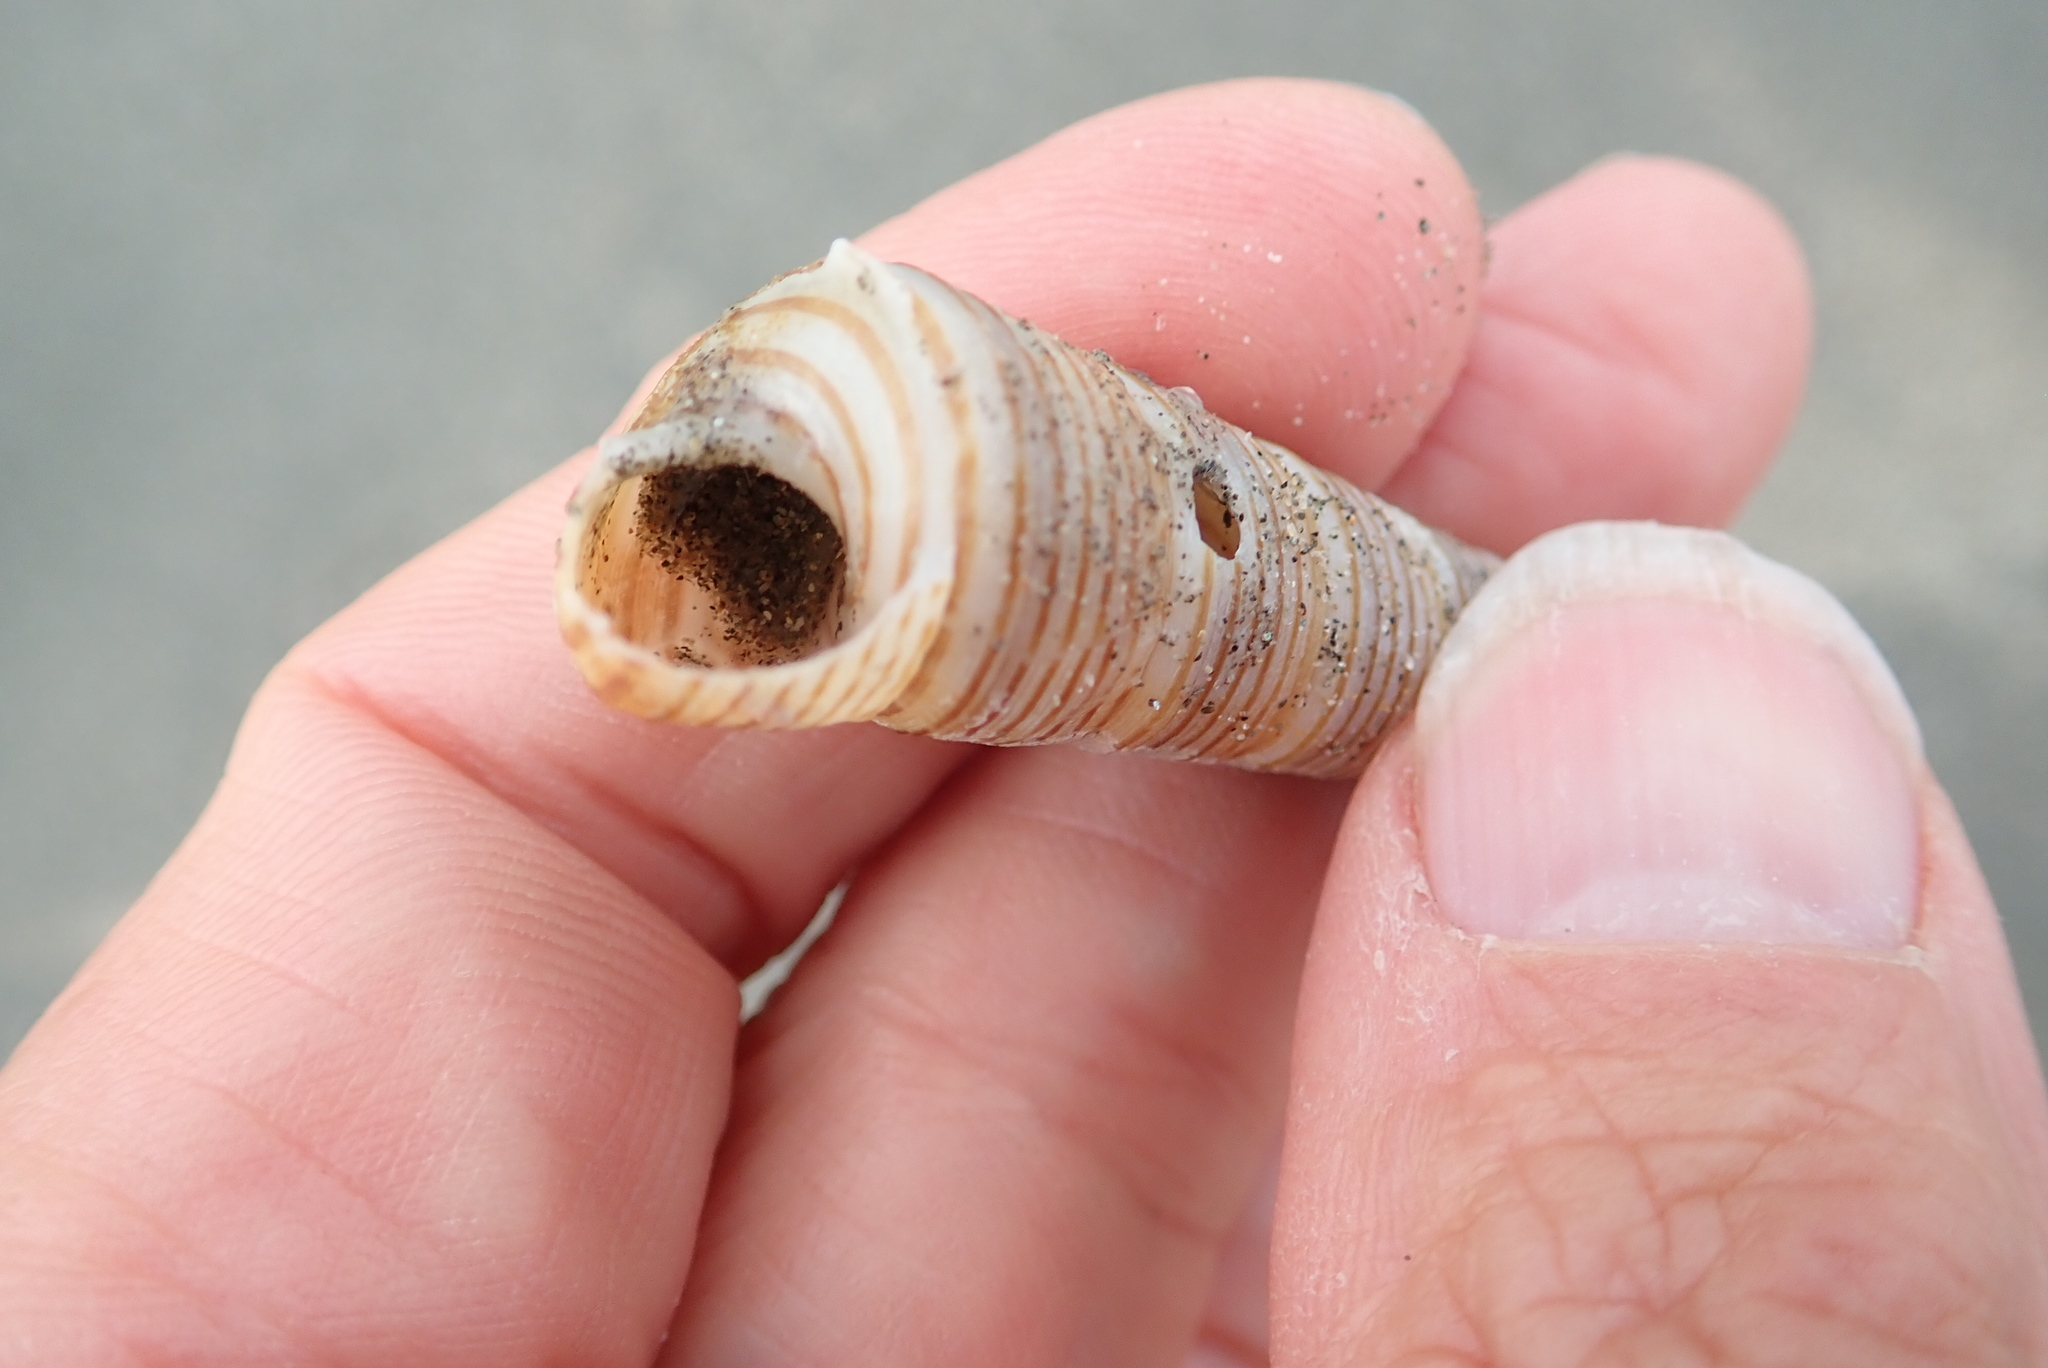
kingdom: Animalia
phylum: Mollusca
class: Gastropoda
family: Turritellidae
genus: Zeacolpus
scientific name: Zeacolpus vittatus
